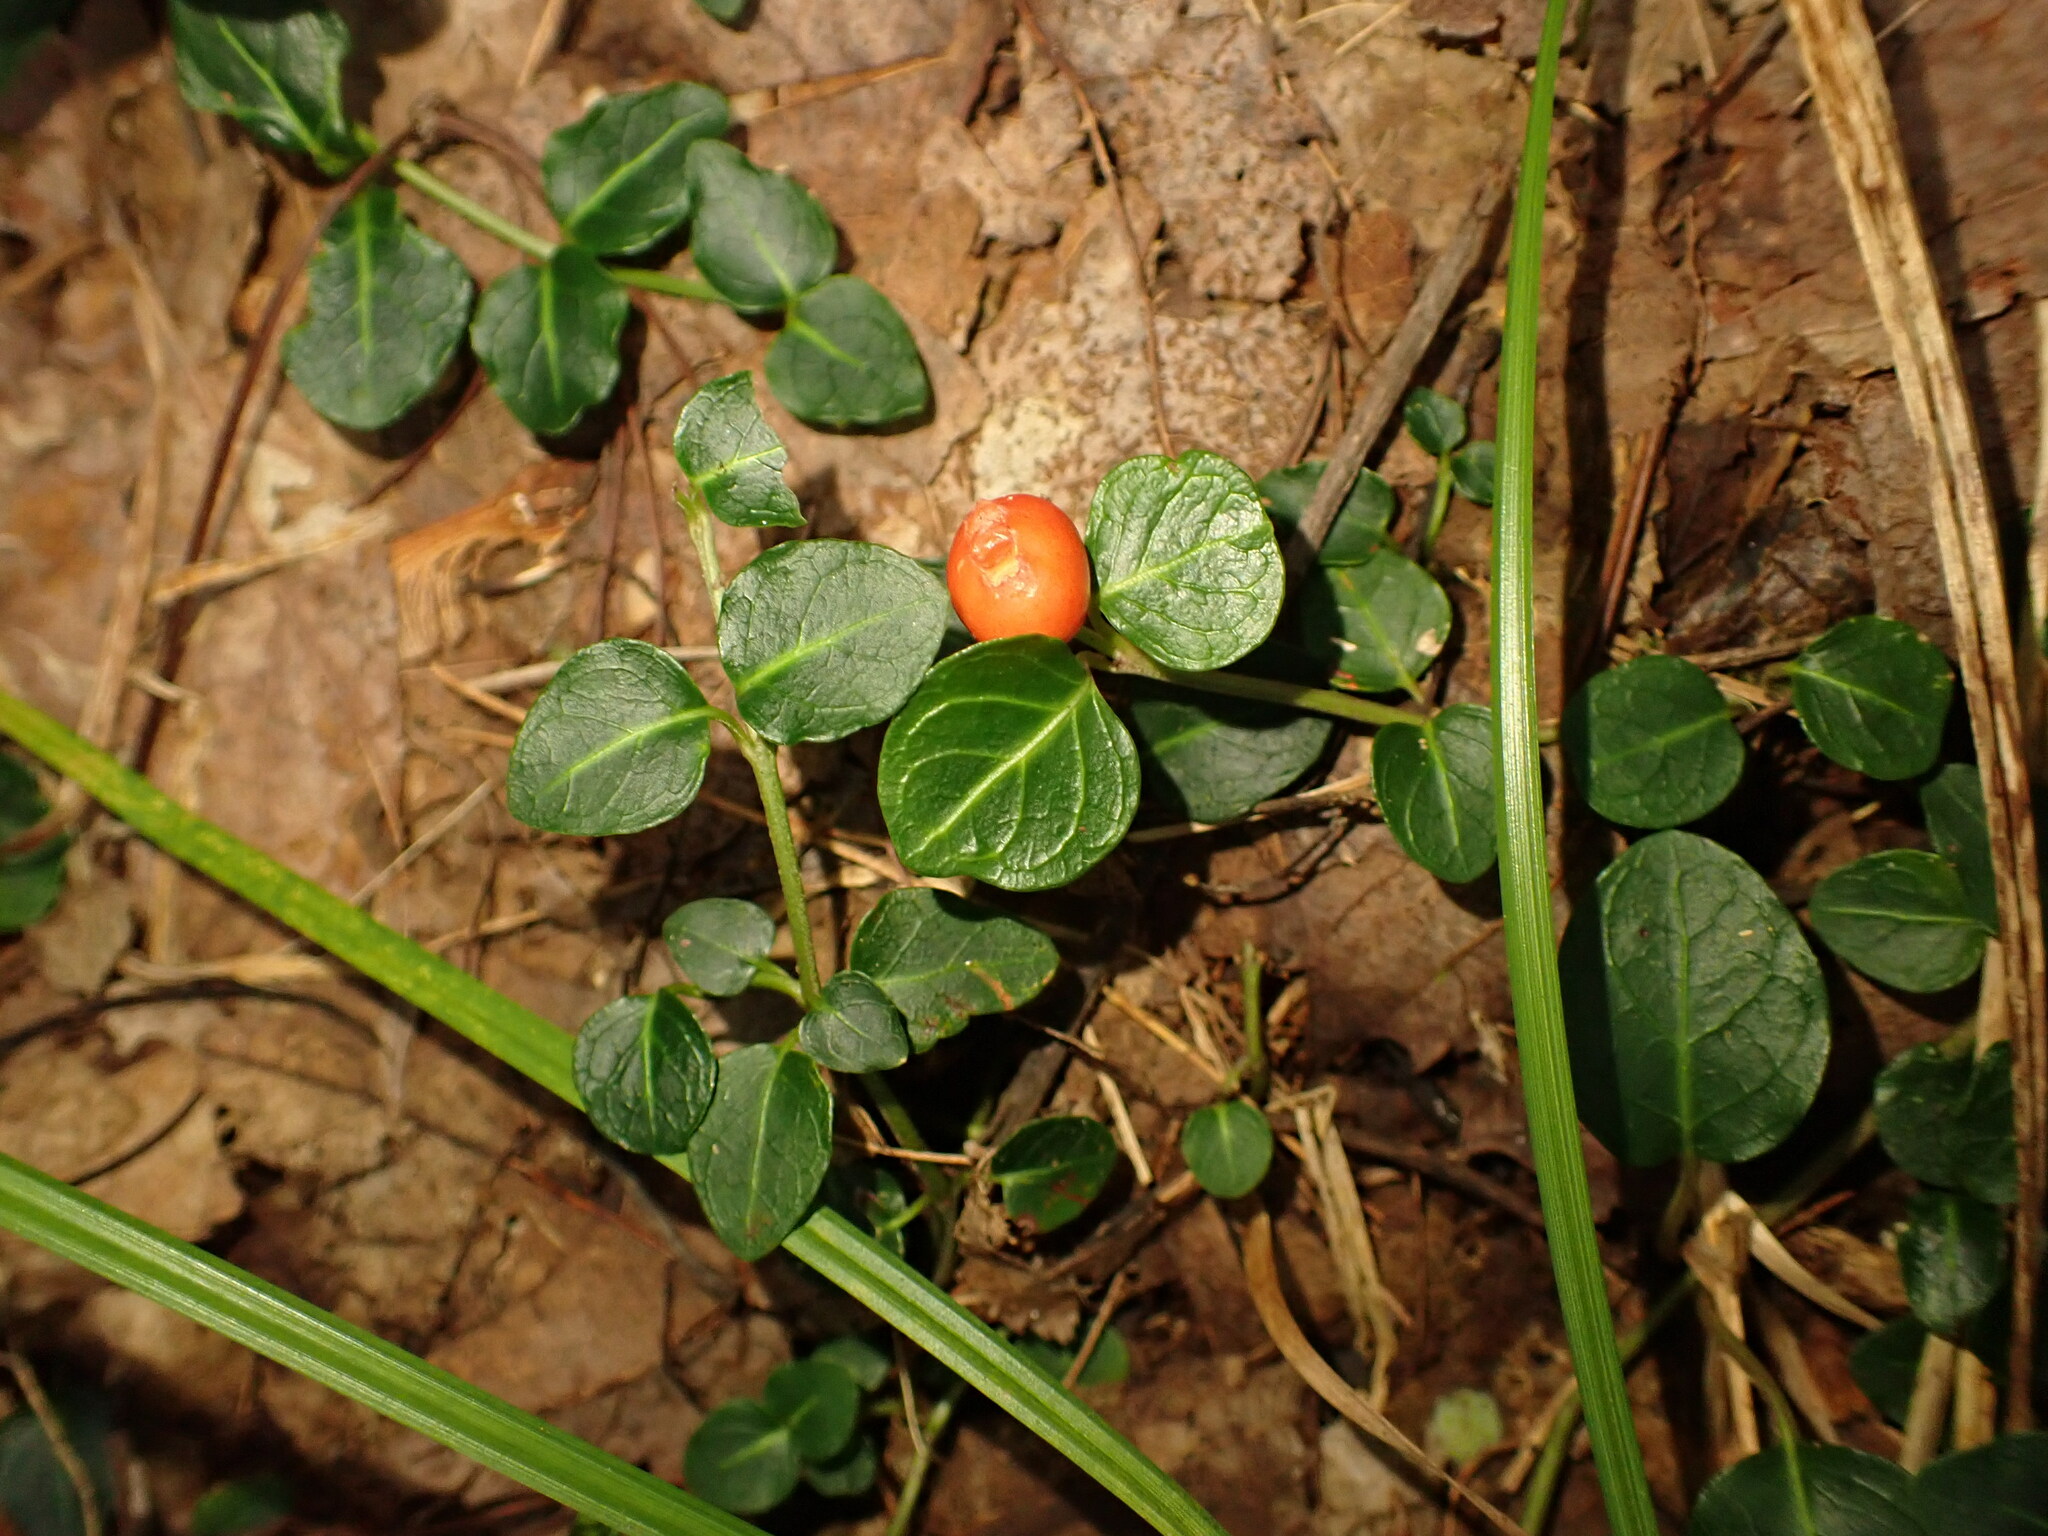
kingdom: Plantae
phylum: Tracheophyta
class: Magnoliopsida
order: Gentianales
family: Rubiaceae
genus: Mitchella
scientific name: Mitchella repens
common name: Partridge-berry
